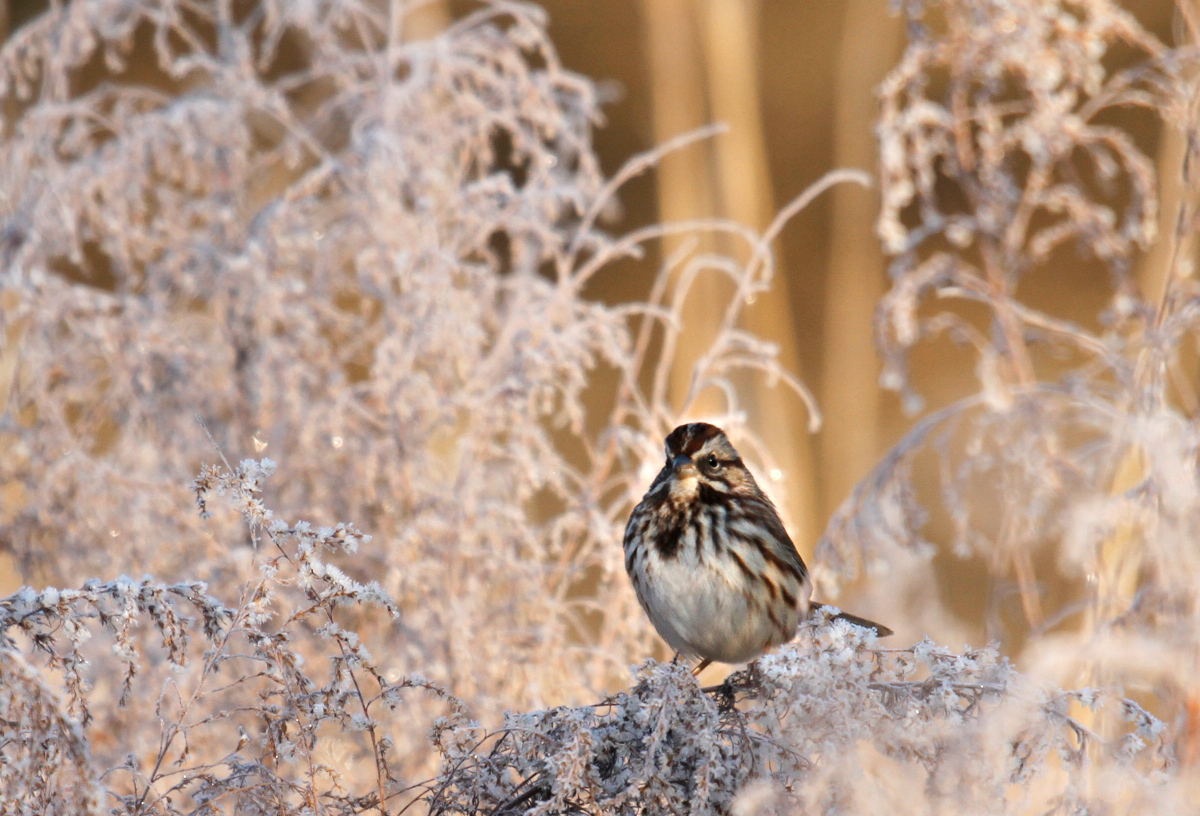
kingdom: Animalia
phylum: Chordata
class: Aves
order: Passeriformes
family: Passerellidae
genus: Melospiza
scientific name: Melospiza melodia
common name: Song sparrow
